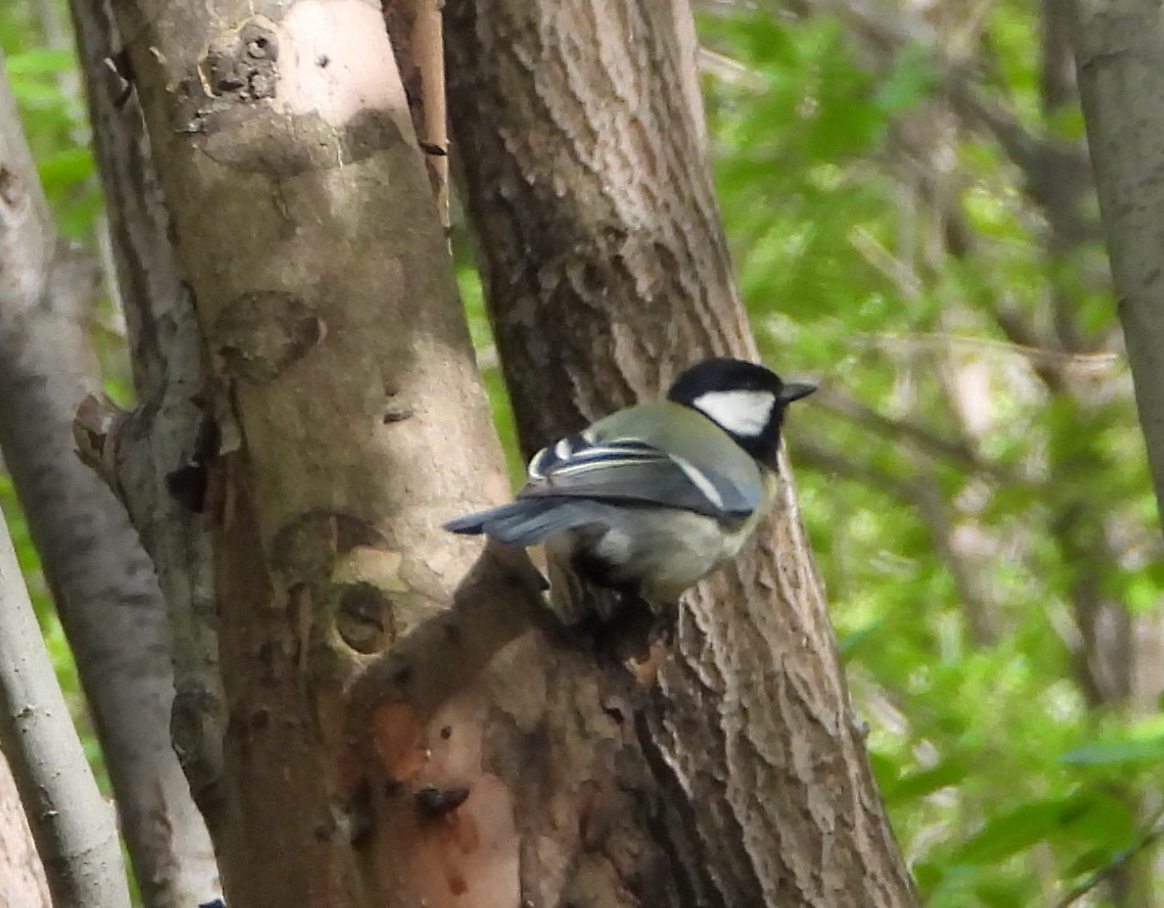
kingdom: Animalia
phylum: Chordata
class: Aves
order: Passeriformes
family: Paridae
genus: Parus
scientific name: Parus major
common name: Great tit
